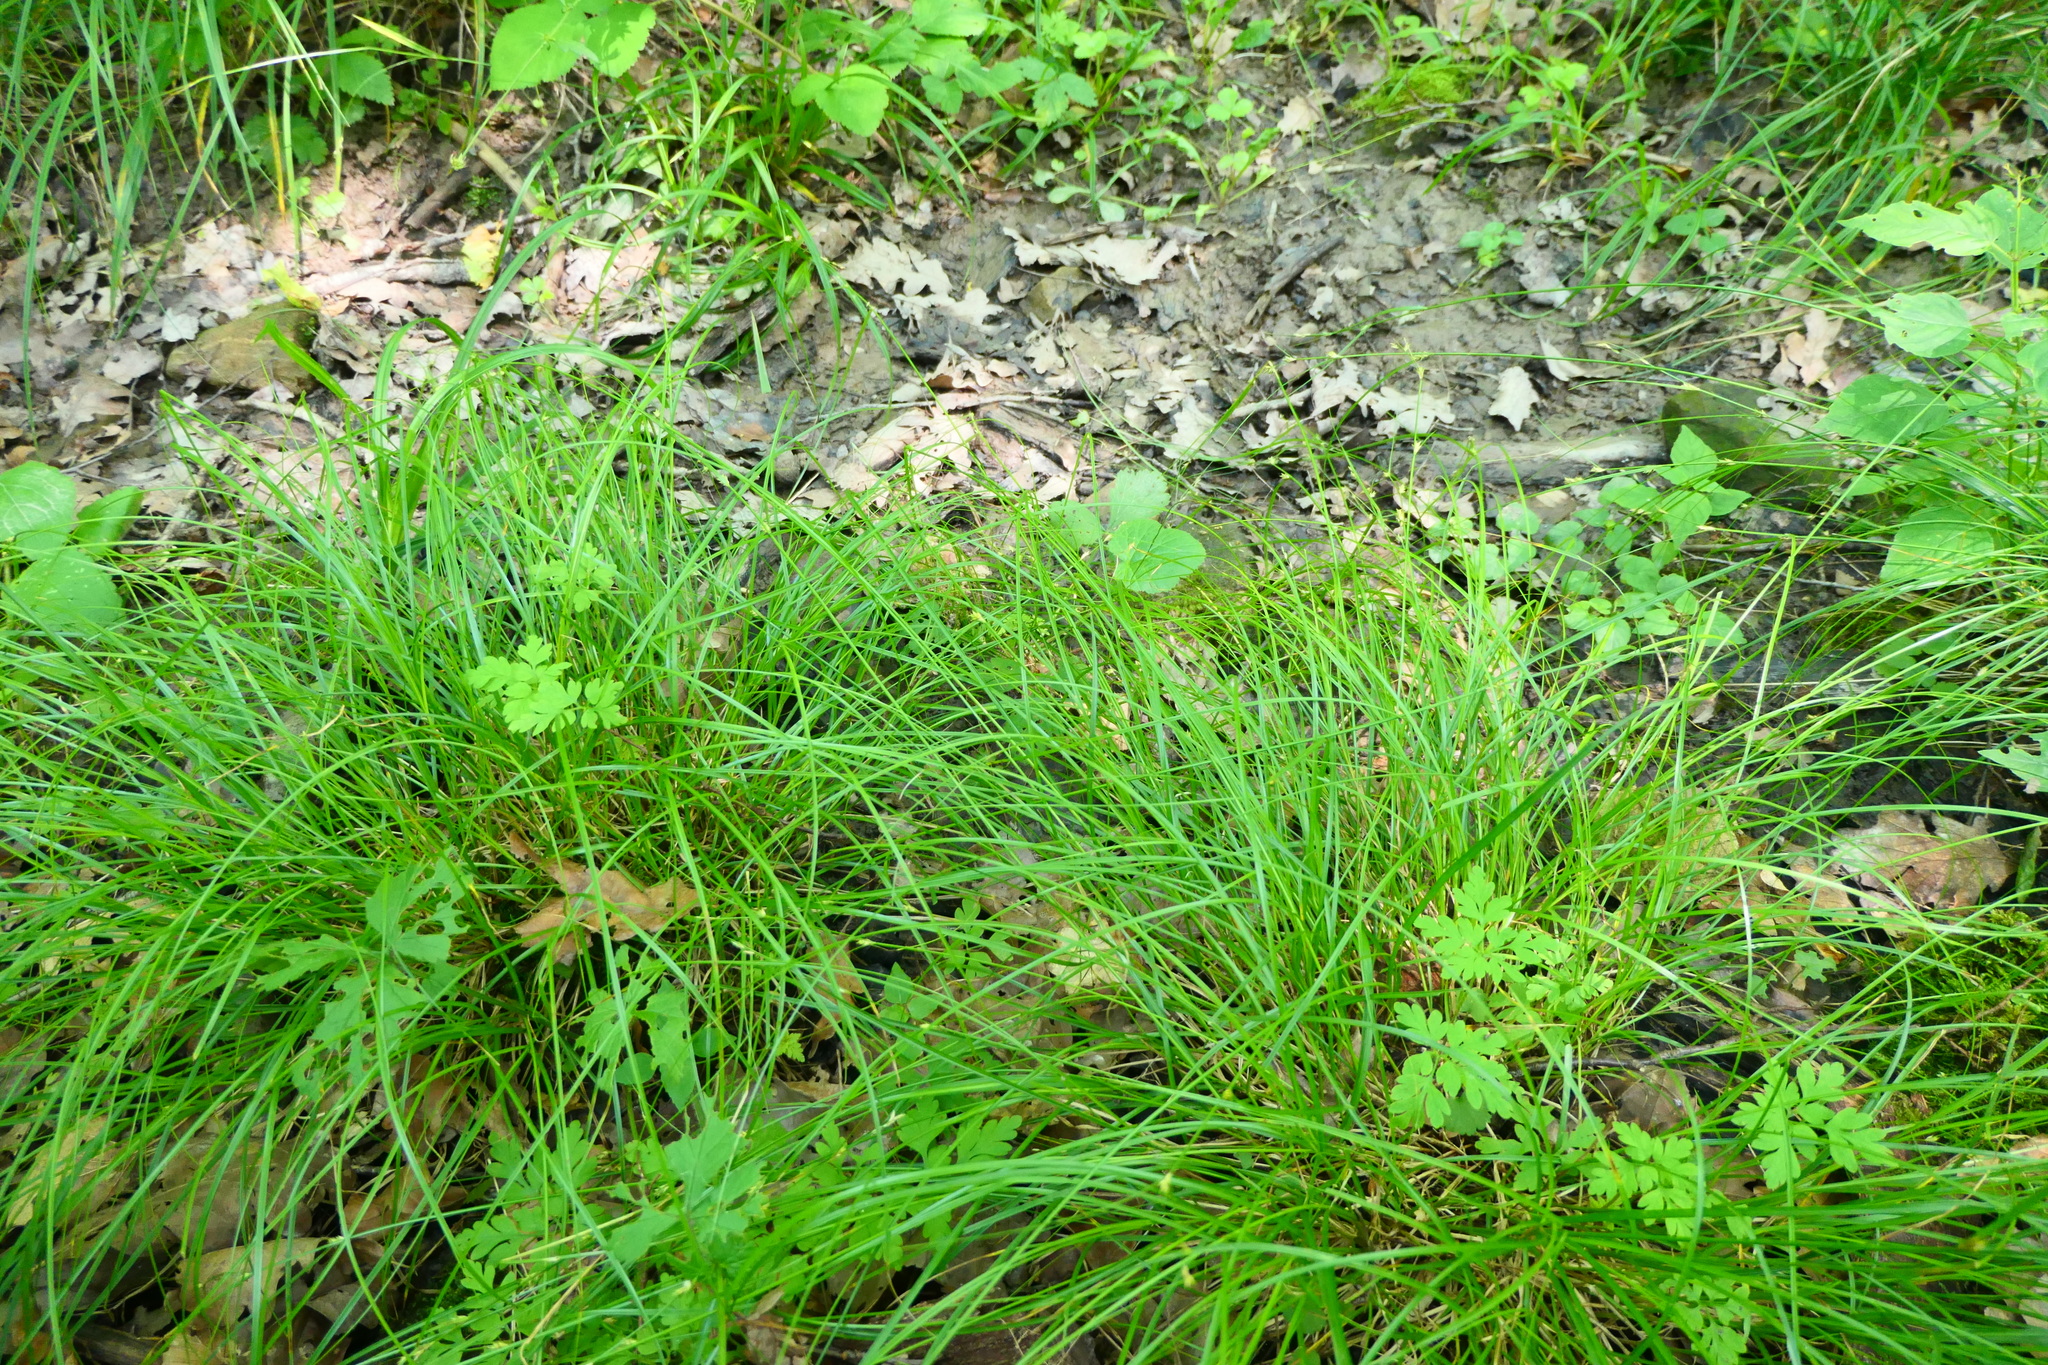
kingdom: Plantae
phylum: Tracheophyta
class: Liliopsida
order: Poales
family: Cyperaceae
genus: Carex
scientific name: Carex remota
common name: Remote sedge
